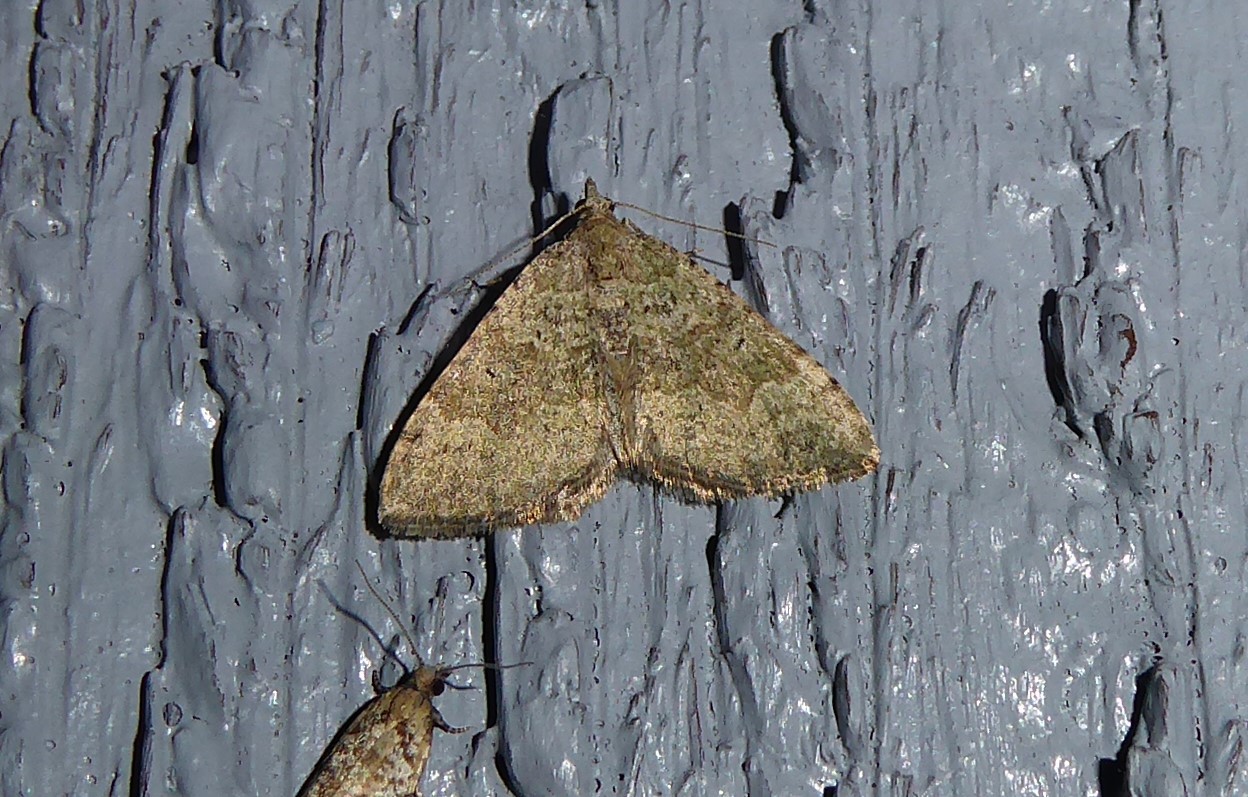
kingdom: Animalia
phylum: Arthropoda
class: Insecta
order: Lepidoptera
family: Geometridae
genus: Epyaxa
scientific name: Epyaxa rosearia
